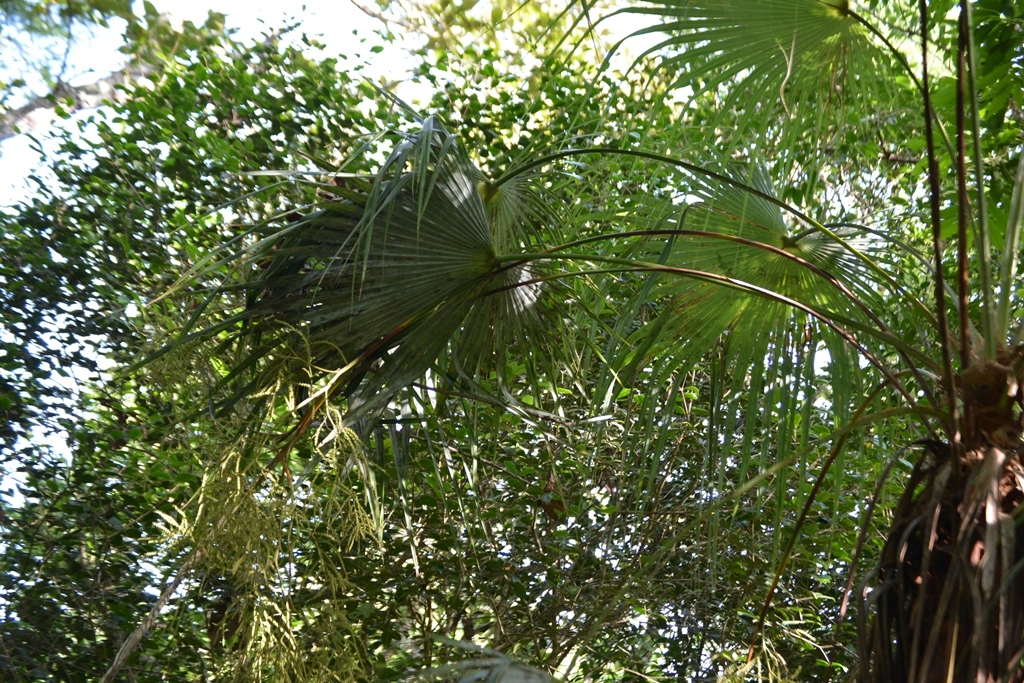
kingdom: Plantae
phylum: Tracheophyta
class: Liliopsida
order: Arecales
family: Arecaceae
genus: Brahea
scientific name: Brahea nitida
